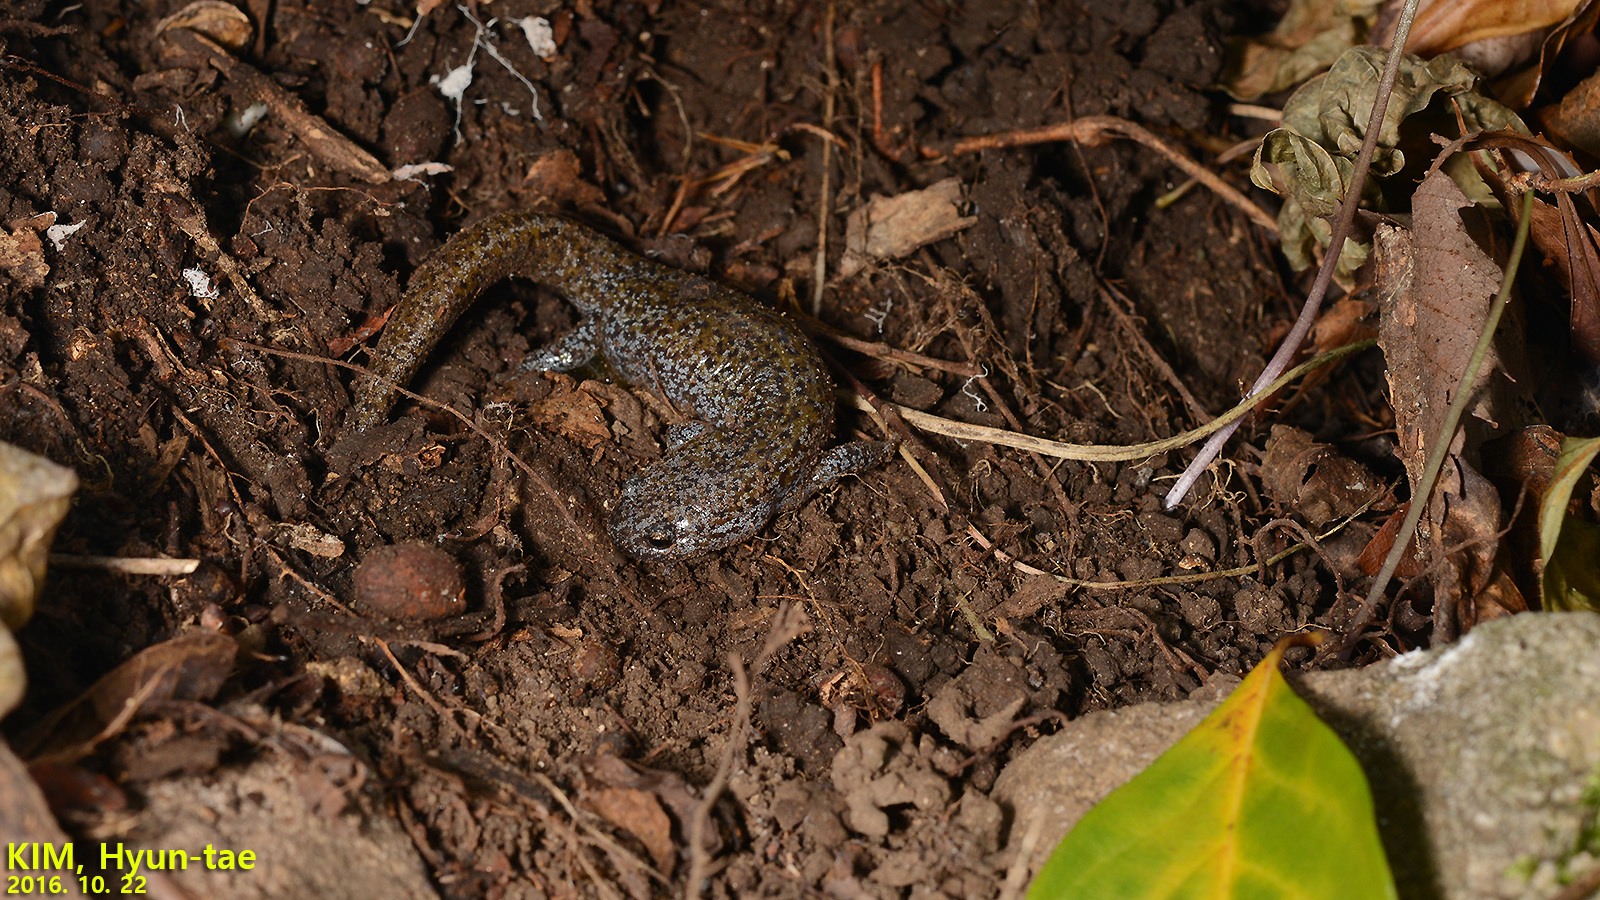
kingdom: Animalia
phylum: Chordata
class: Amphibia
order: Caudata
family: Hynobiidae
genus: Hynobius
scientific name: Hynobius leechii
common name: Gensan salamander
